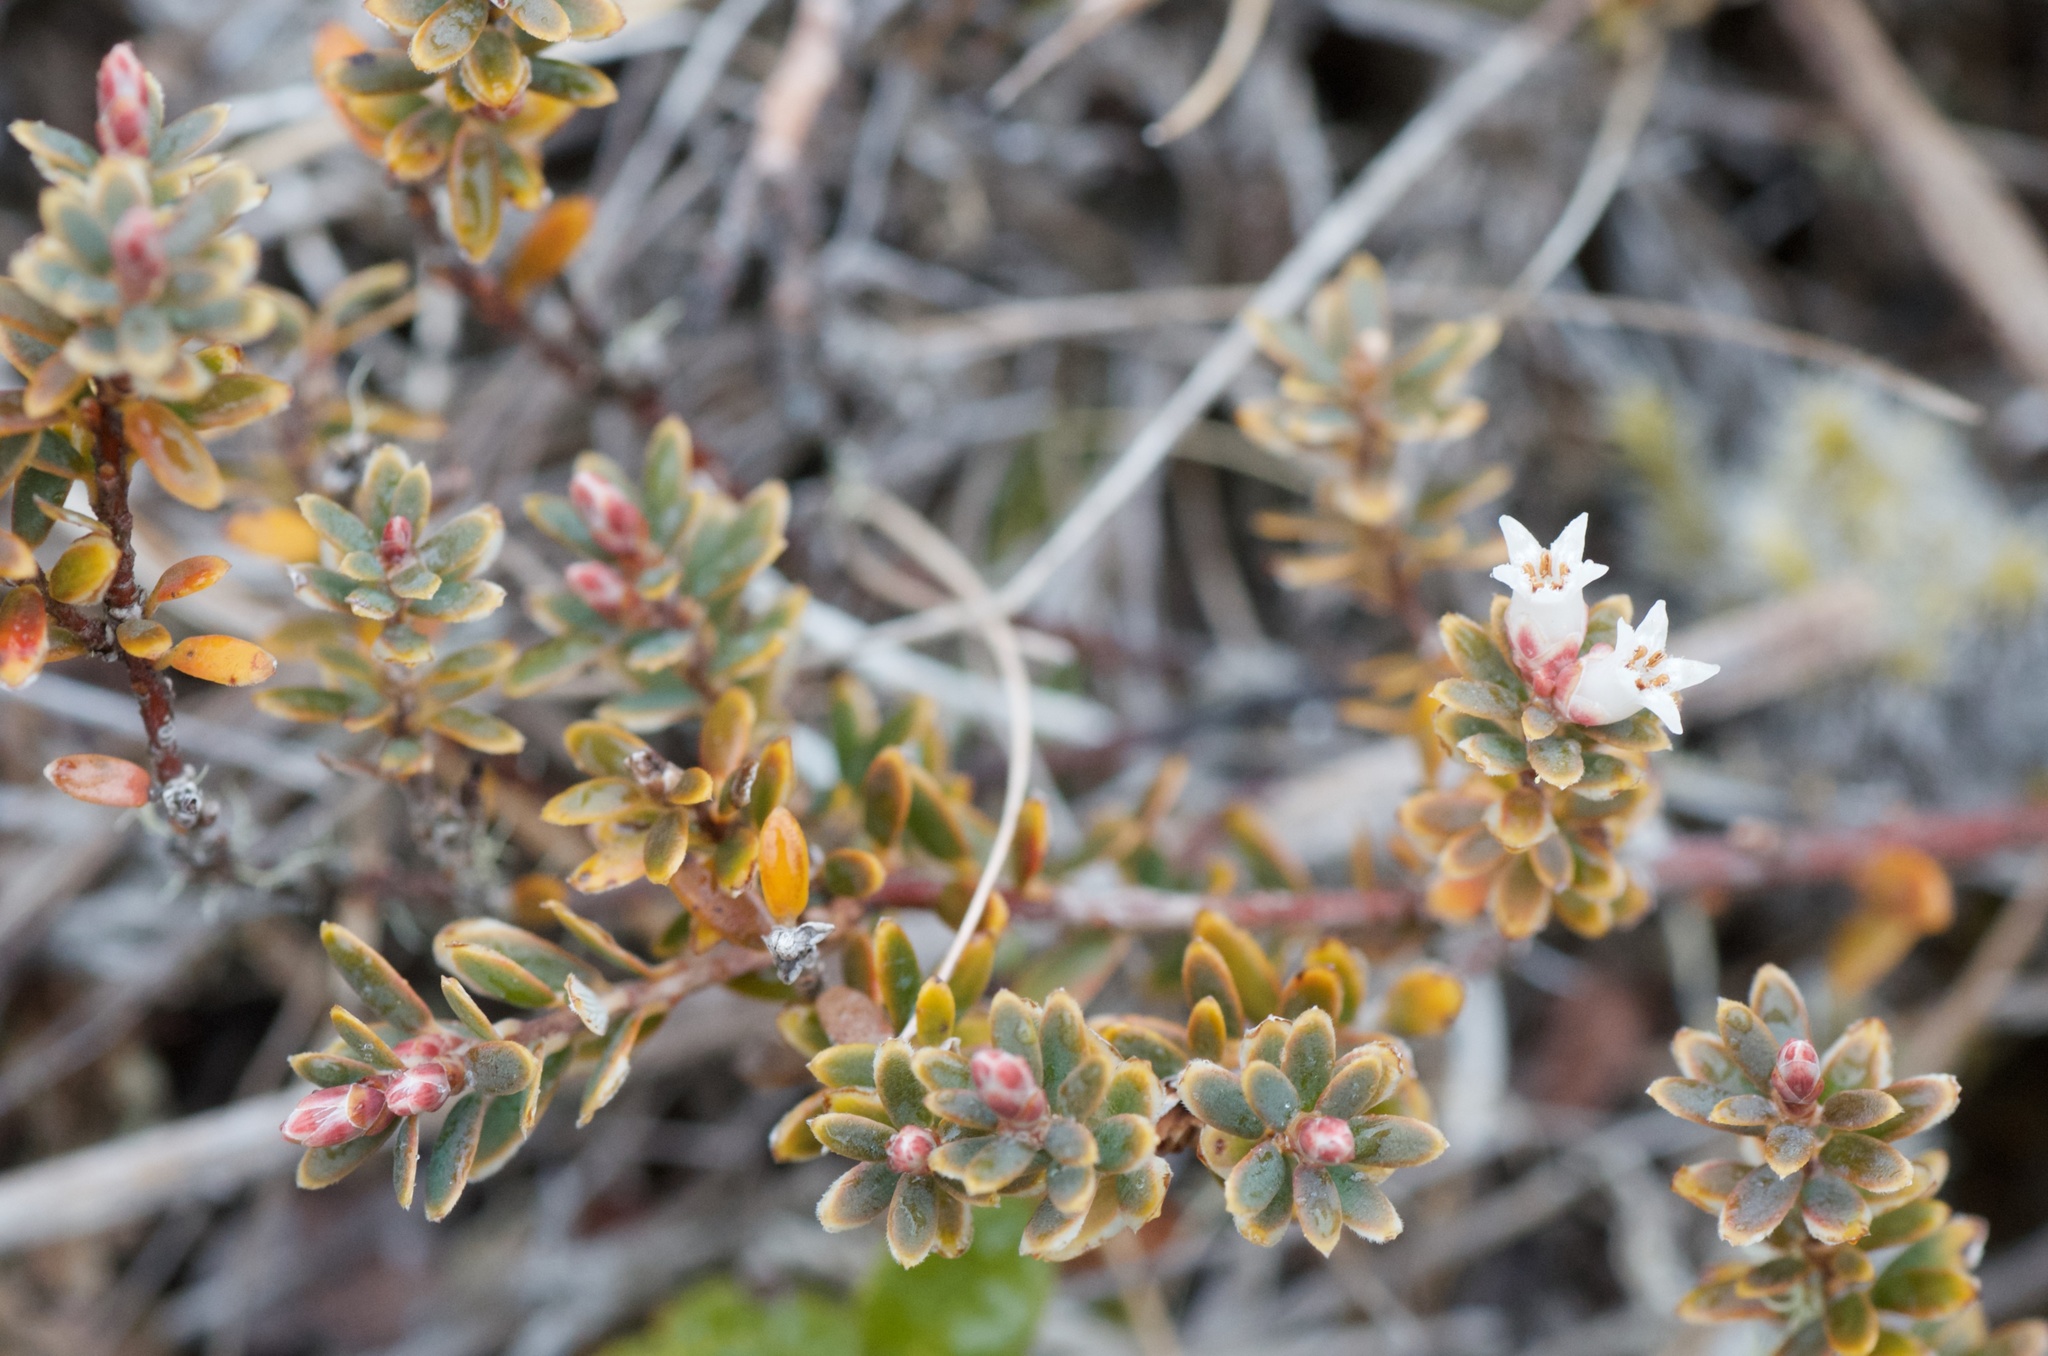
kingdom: Plantae
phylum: Tracheophyta
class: Magnoliopsida
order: Ericales
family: Ericaceae
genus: Acrothamnus
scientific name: Acrothamnus colensoi
